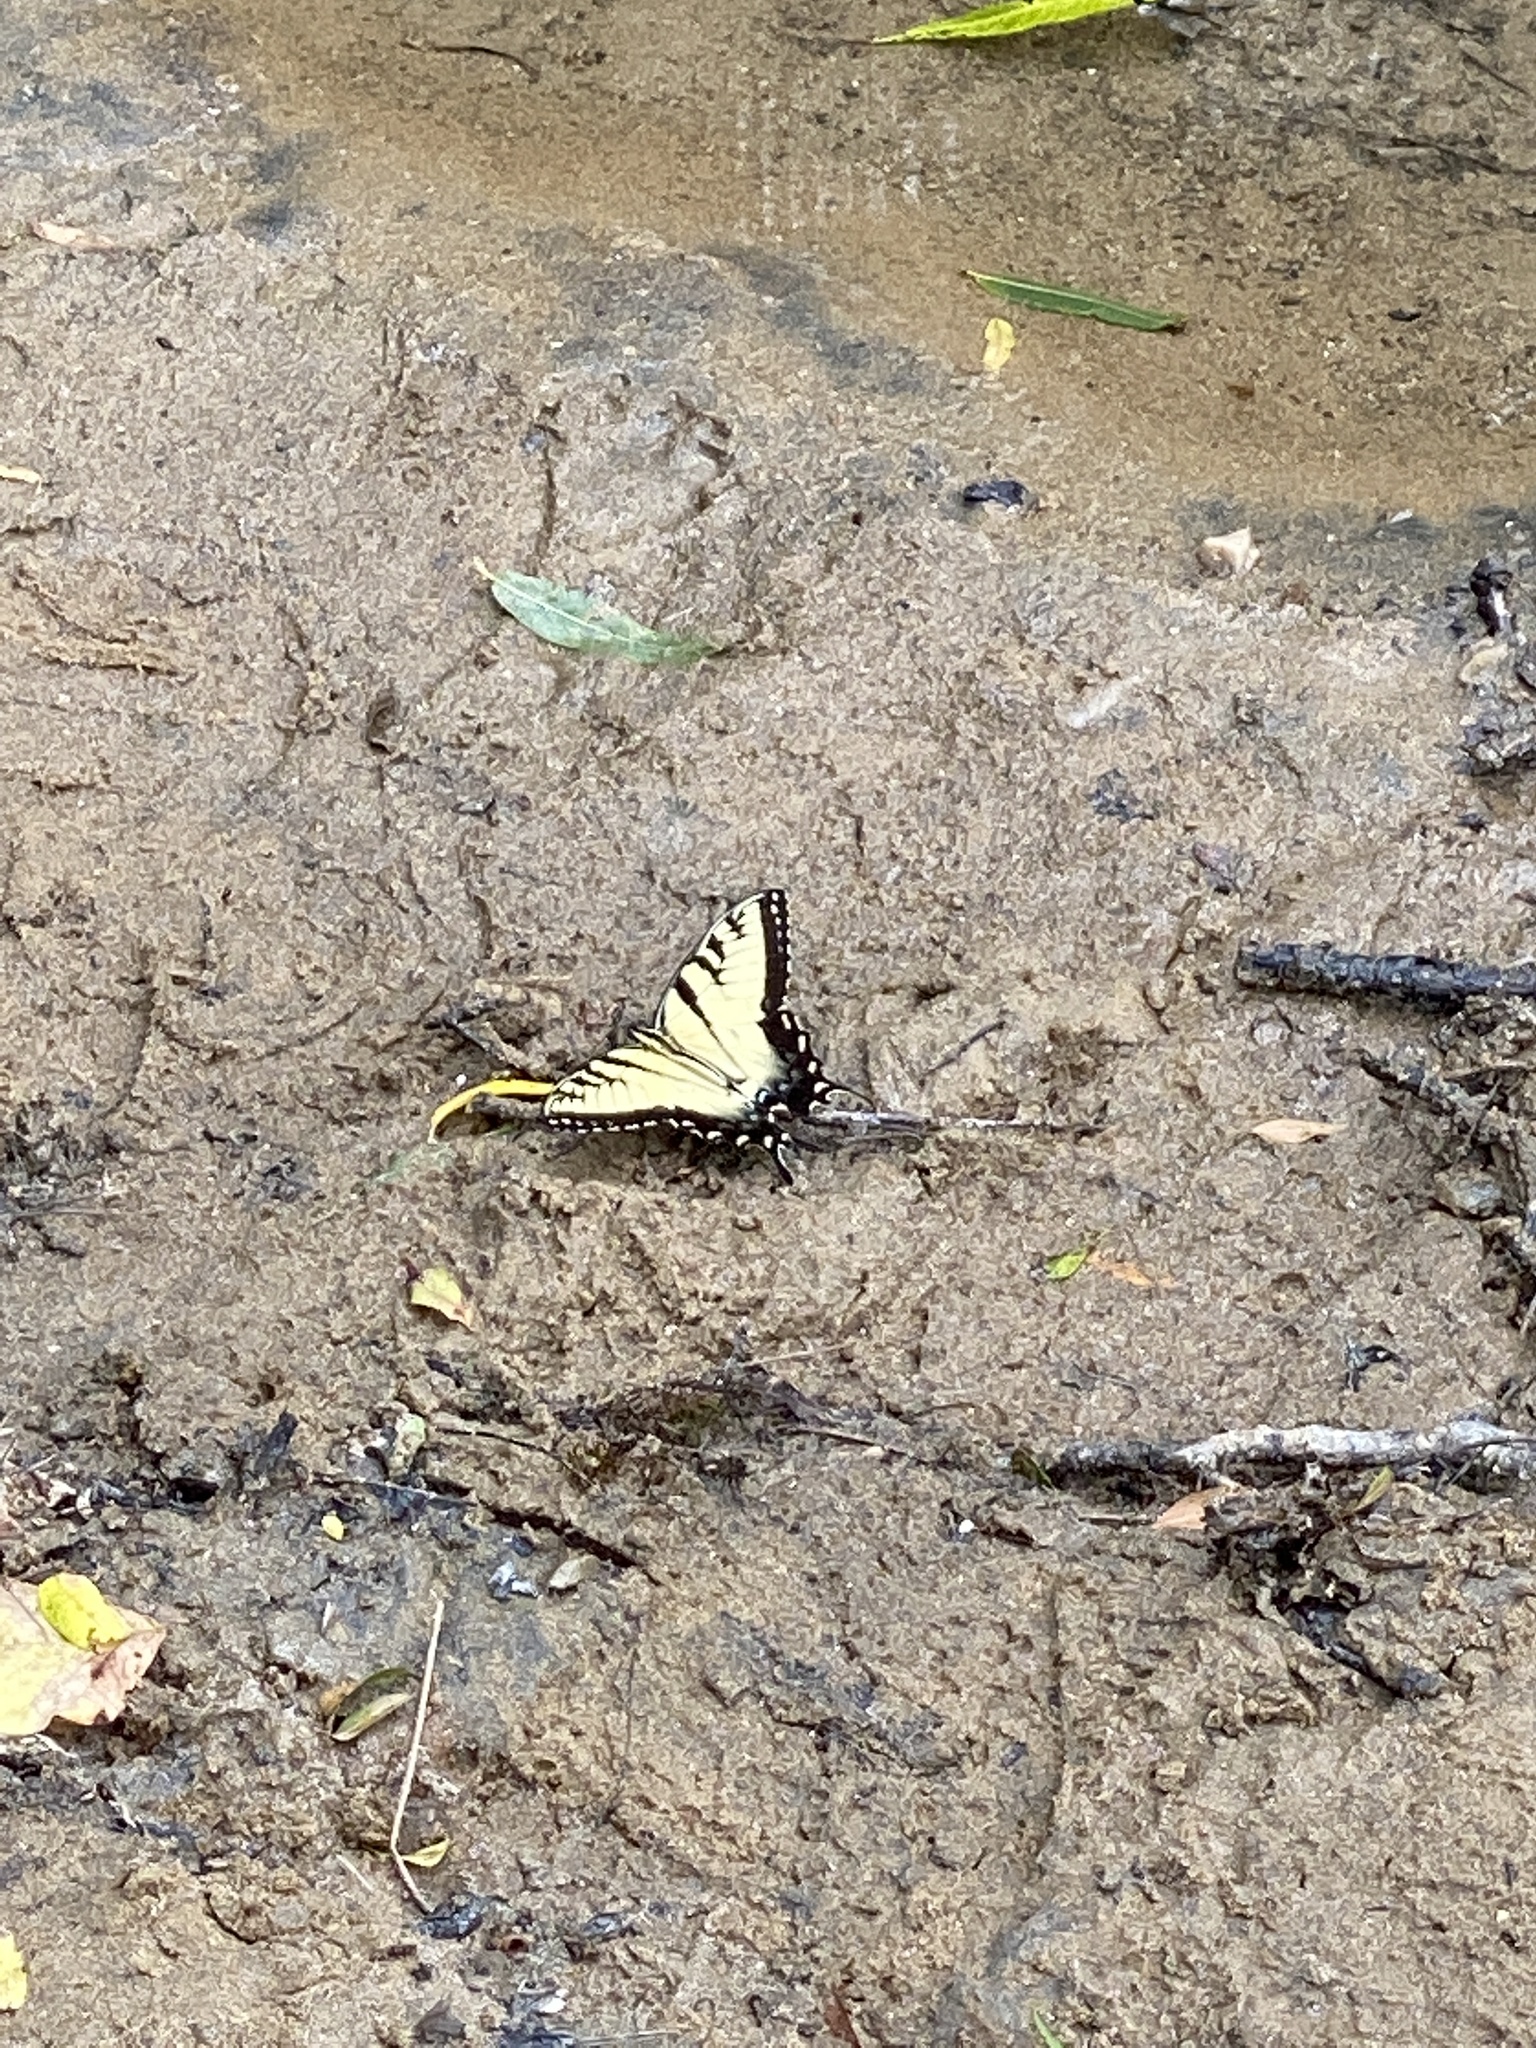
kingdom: Animalia
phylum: Arthropoda
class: Insecta
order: Lepidoptera
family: Papilionidae
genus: Papilio
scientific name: Papilio glaucus
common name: Tiger swallowtail
